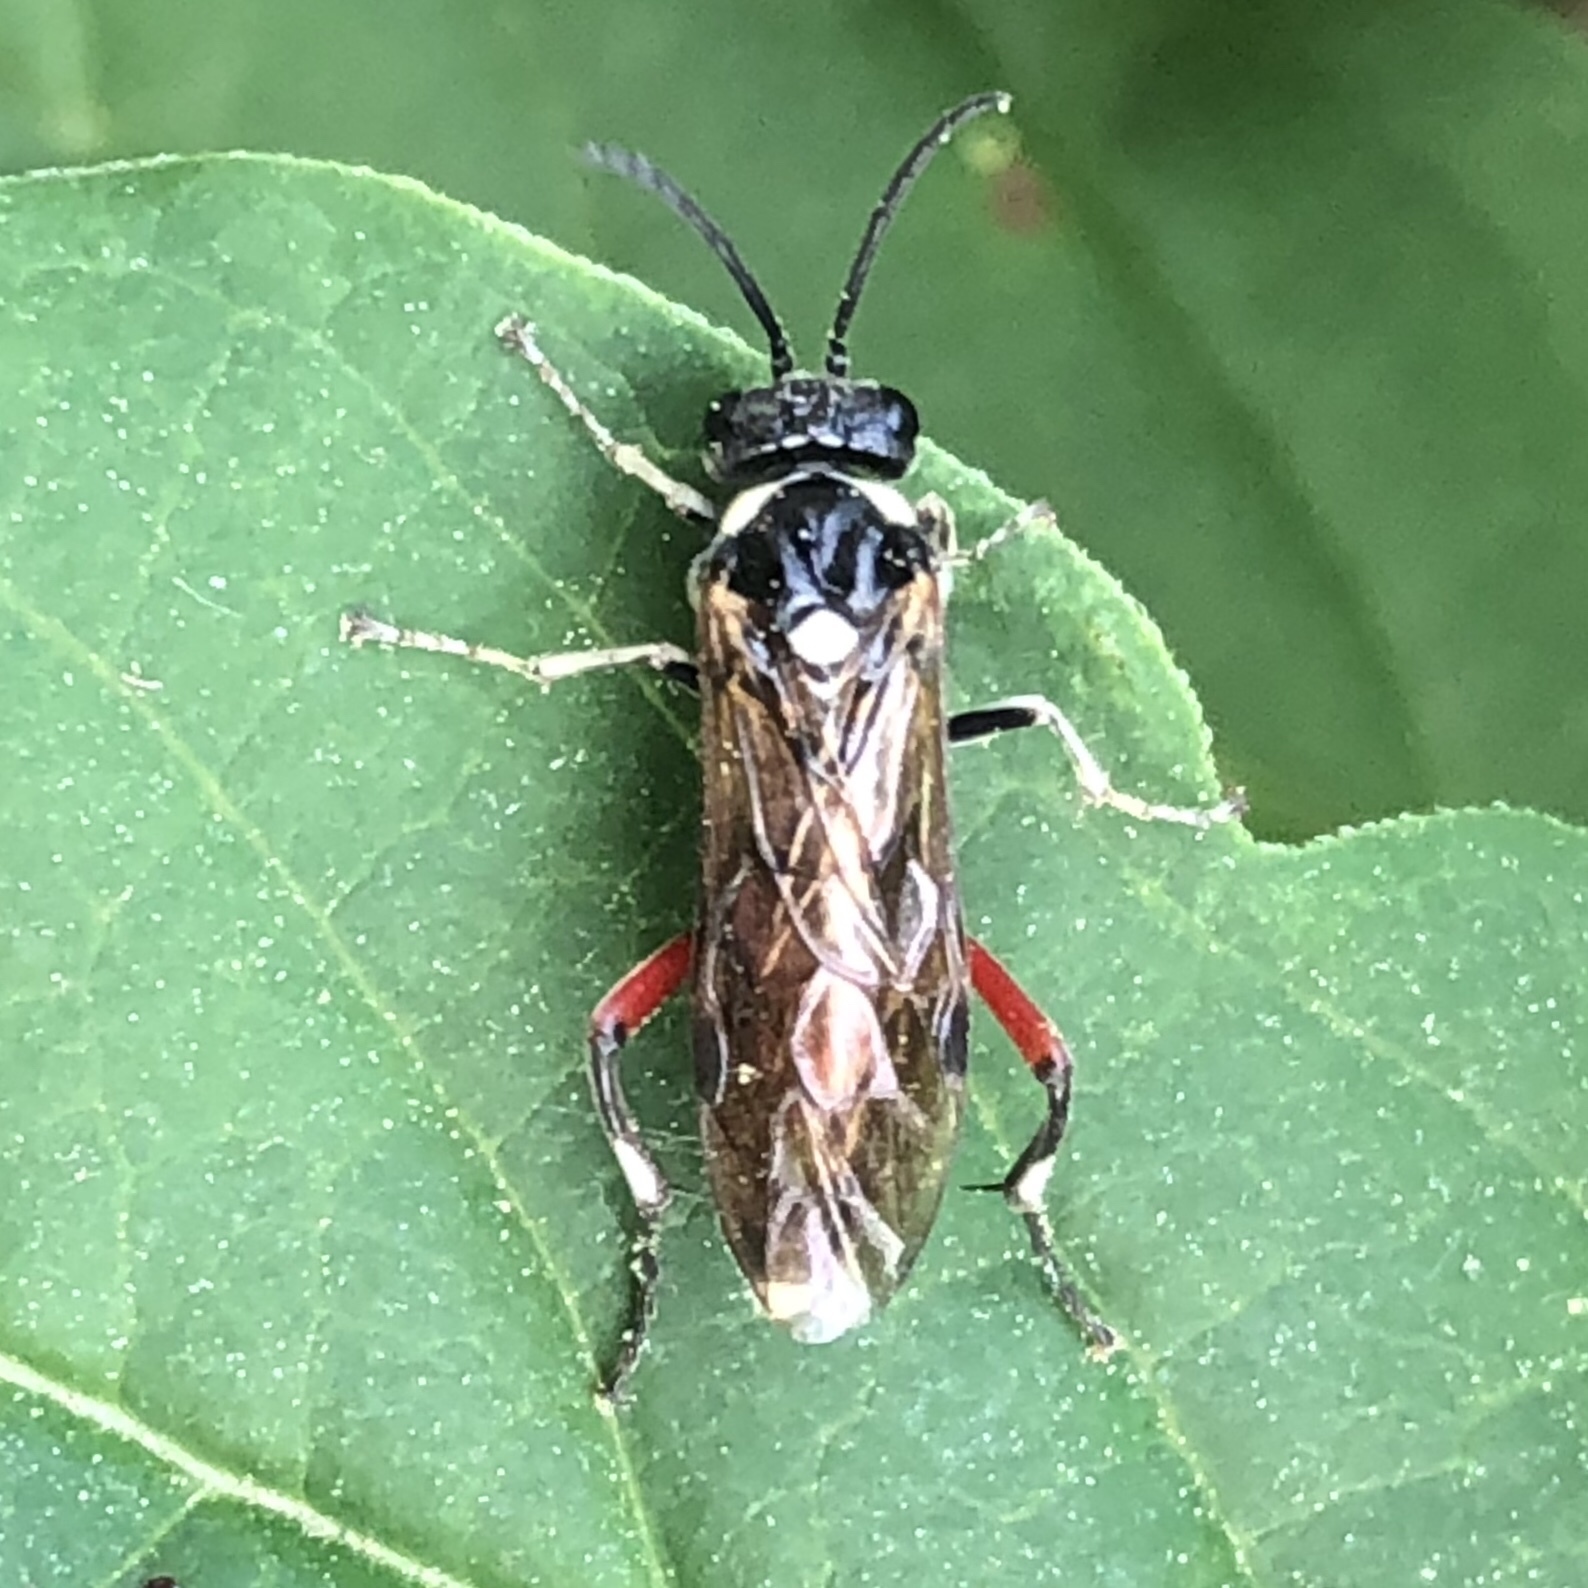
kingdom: Animalia
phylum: Arthropoda
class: Insecta
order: Hymenoptera
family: Tenthredinidae
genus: Macrophya
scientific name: Macrophya punctumalbum
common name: Sawfly
